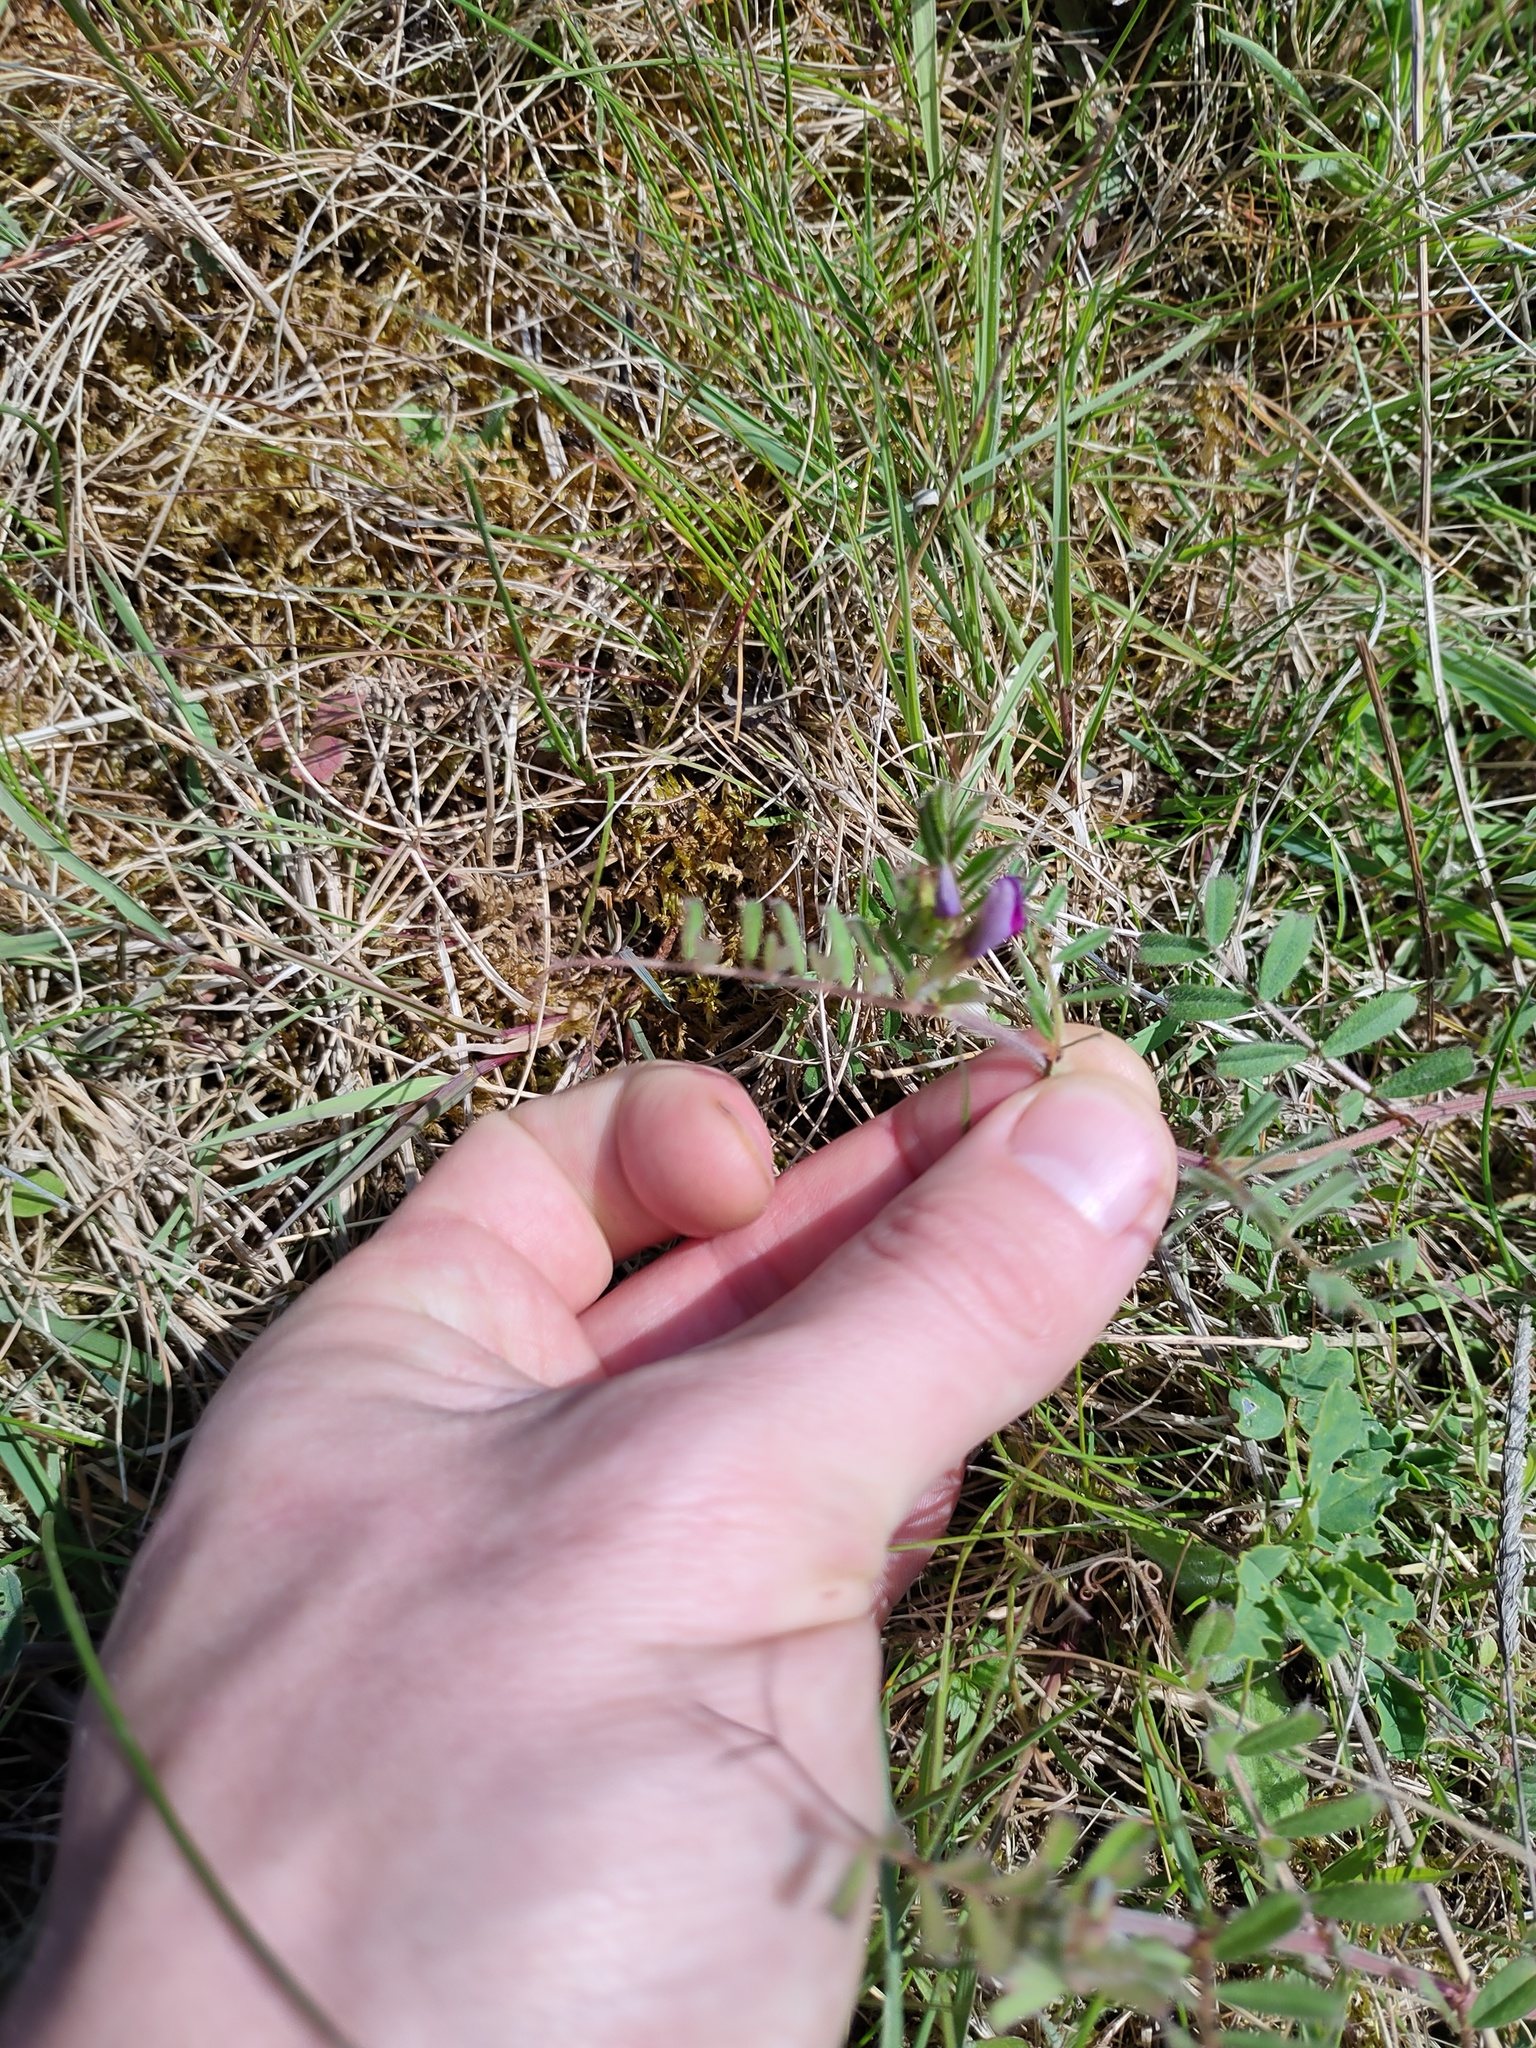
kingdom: Plantae
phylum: Tracheophyta
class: Magnoliopsida
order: Fabales
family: Fabaceae
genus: Vicia
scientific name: Vicia sativa
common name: Garden vetch
